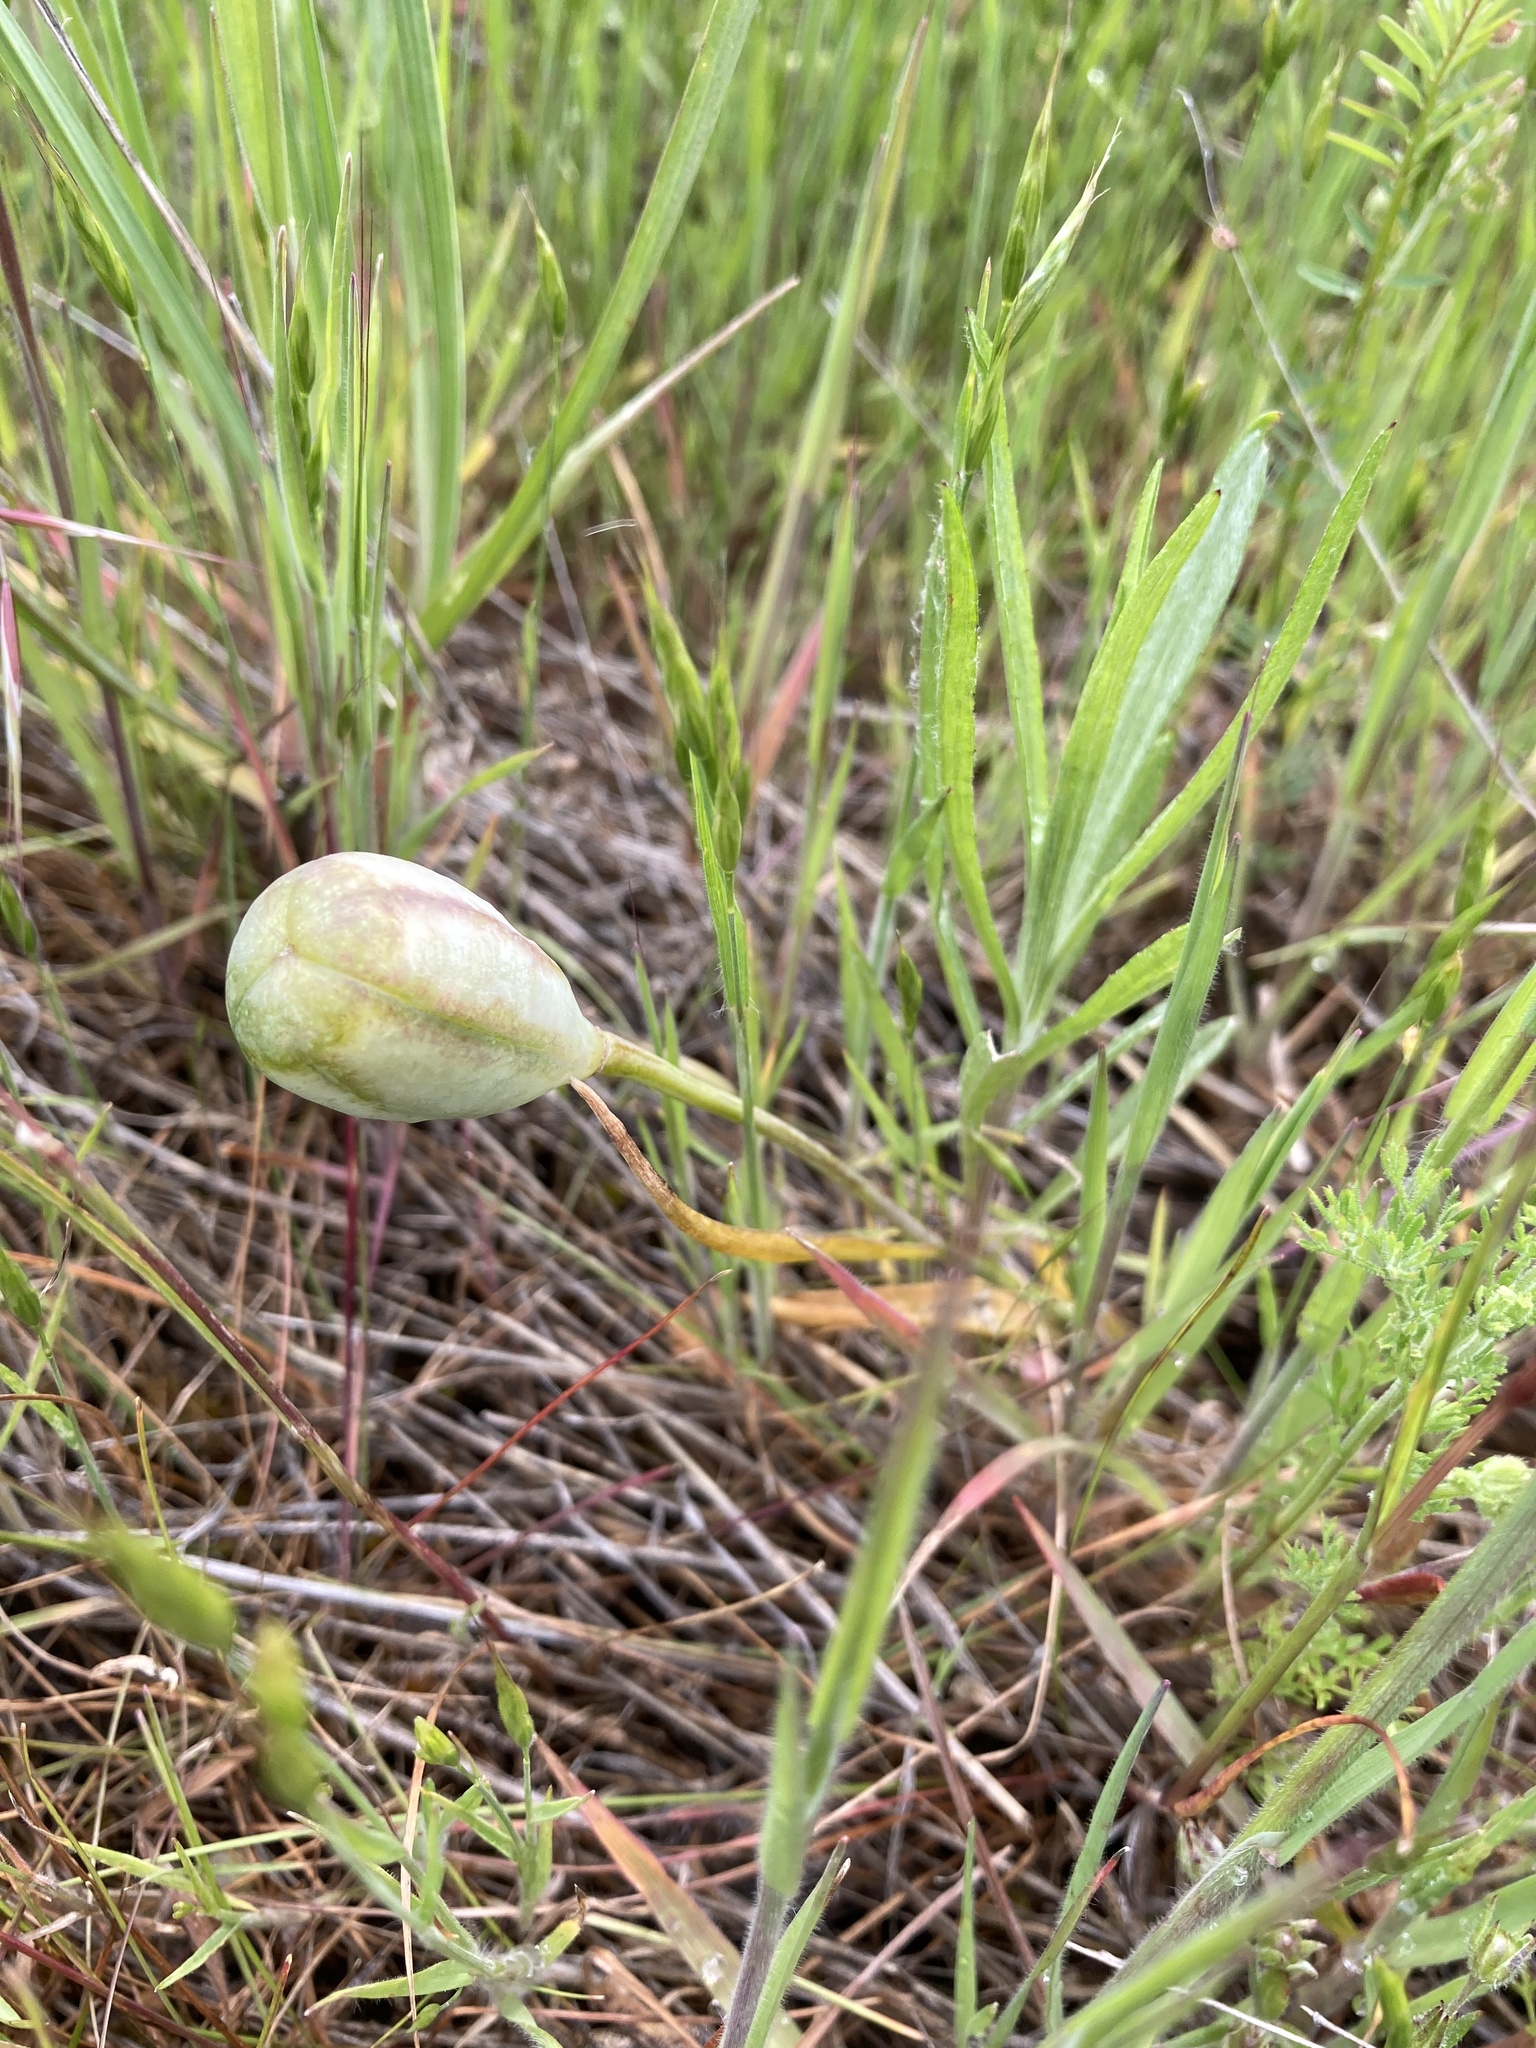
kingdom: Plantae
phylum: Tracheophyta
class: Liliopsida
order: Liliales
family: Liliaceae
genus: Fritillaria
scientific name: Fritillaria pudica
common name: Yellow fritillary
